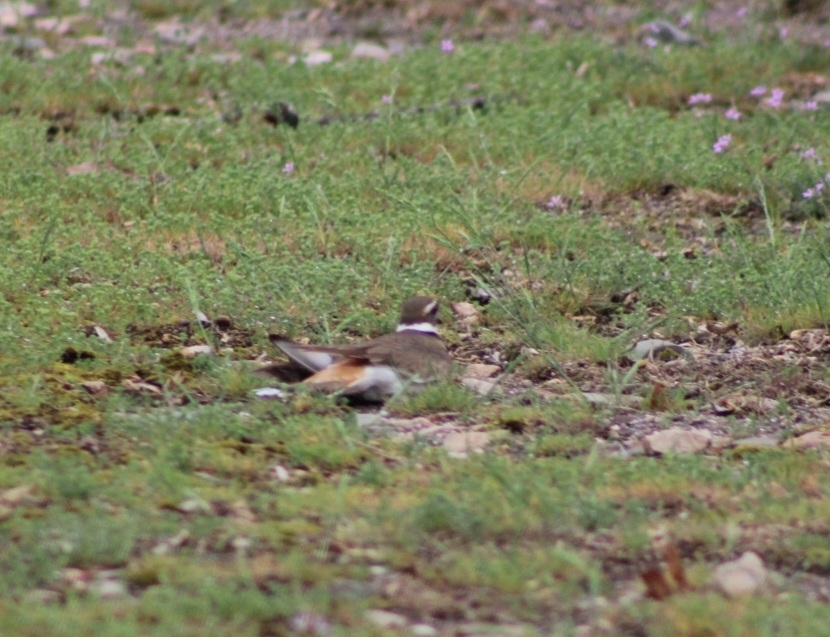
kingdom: Animalia
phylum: Chordata
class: Aves
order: Charadriiformes
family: Charadriidae
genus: Charadrius
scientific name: Charadrius vociferus
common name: Killdeer
